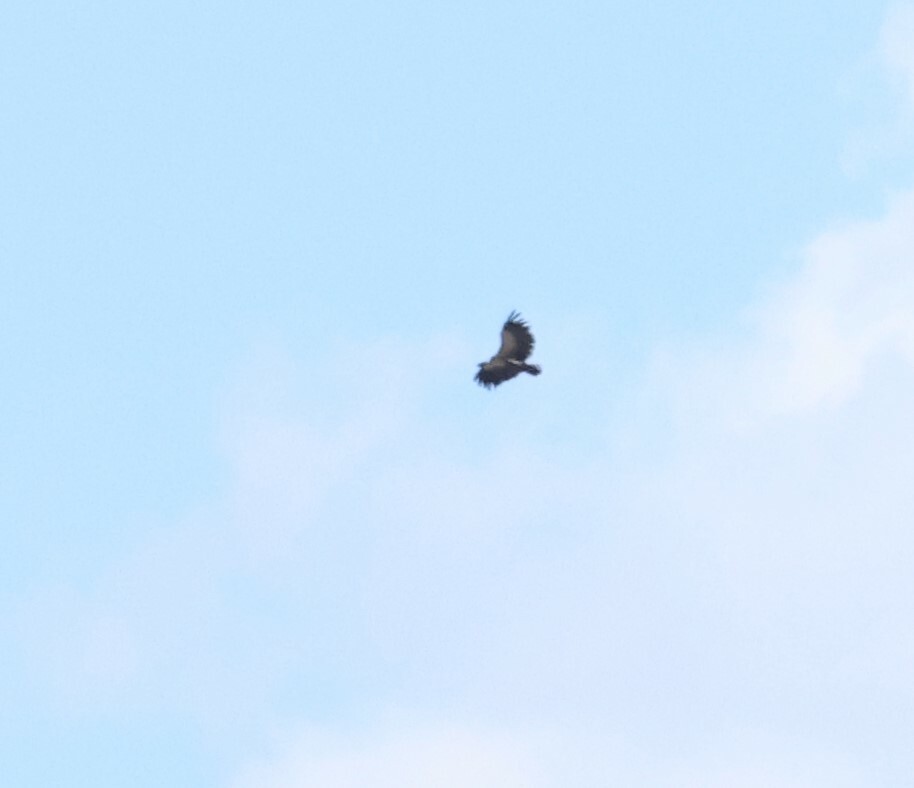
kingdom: Animalia
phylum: Chordata
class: Aves
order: Accipitriformes
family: Accipitridae
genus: Gyps
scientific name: Gyps africanus
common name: White-backed vulture
